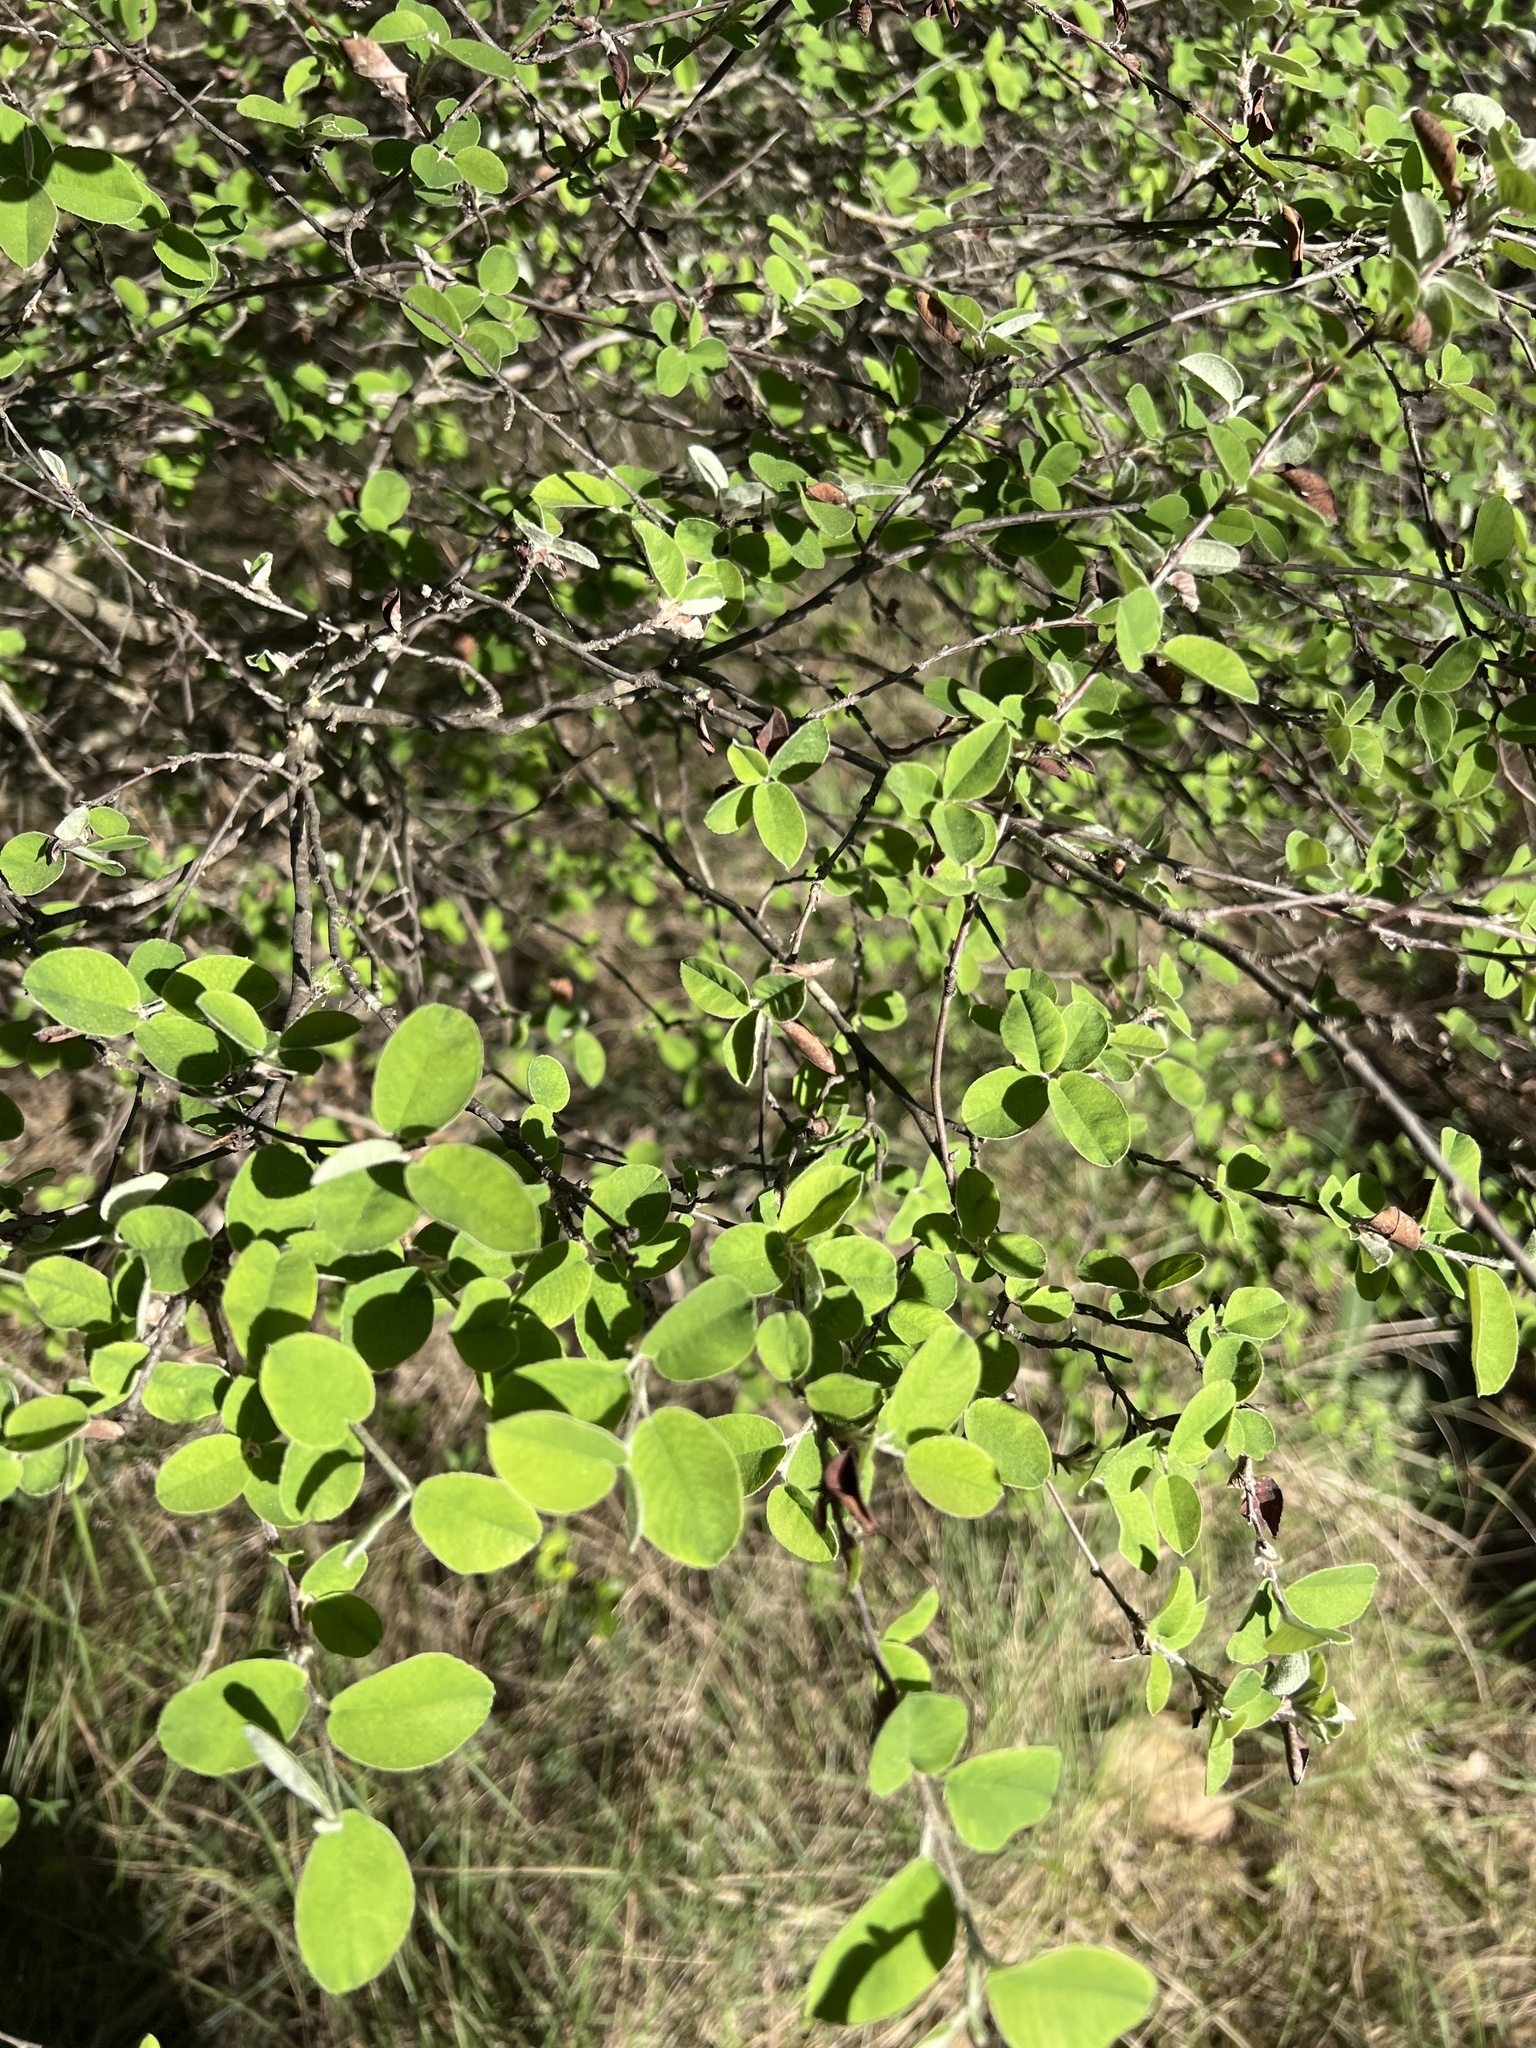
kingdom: Plantae
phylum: Tracheophyta
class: Magnoliopsida
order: Rosales
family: Rosaceae
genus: Amelanchier
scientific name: Amelanchier ovalis
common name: Serviceberry
